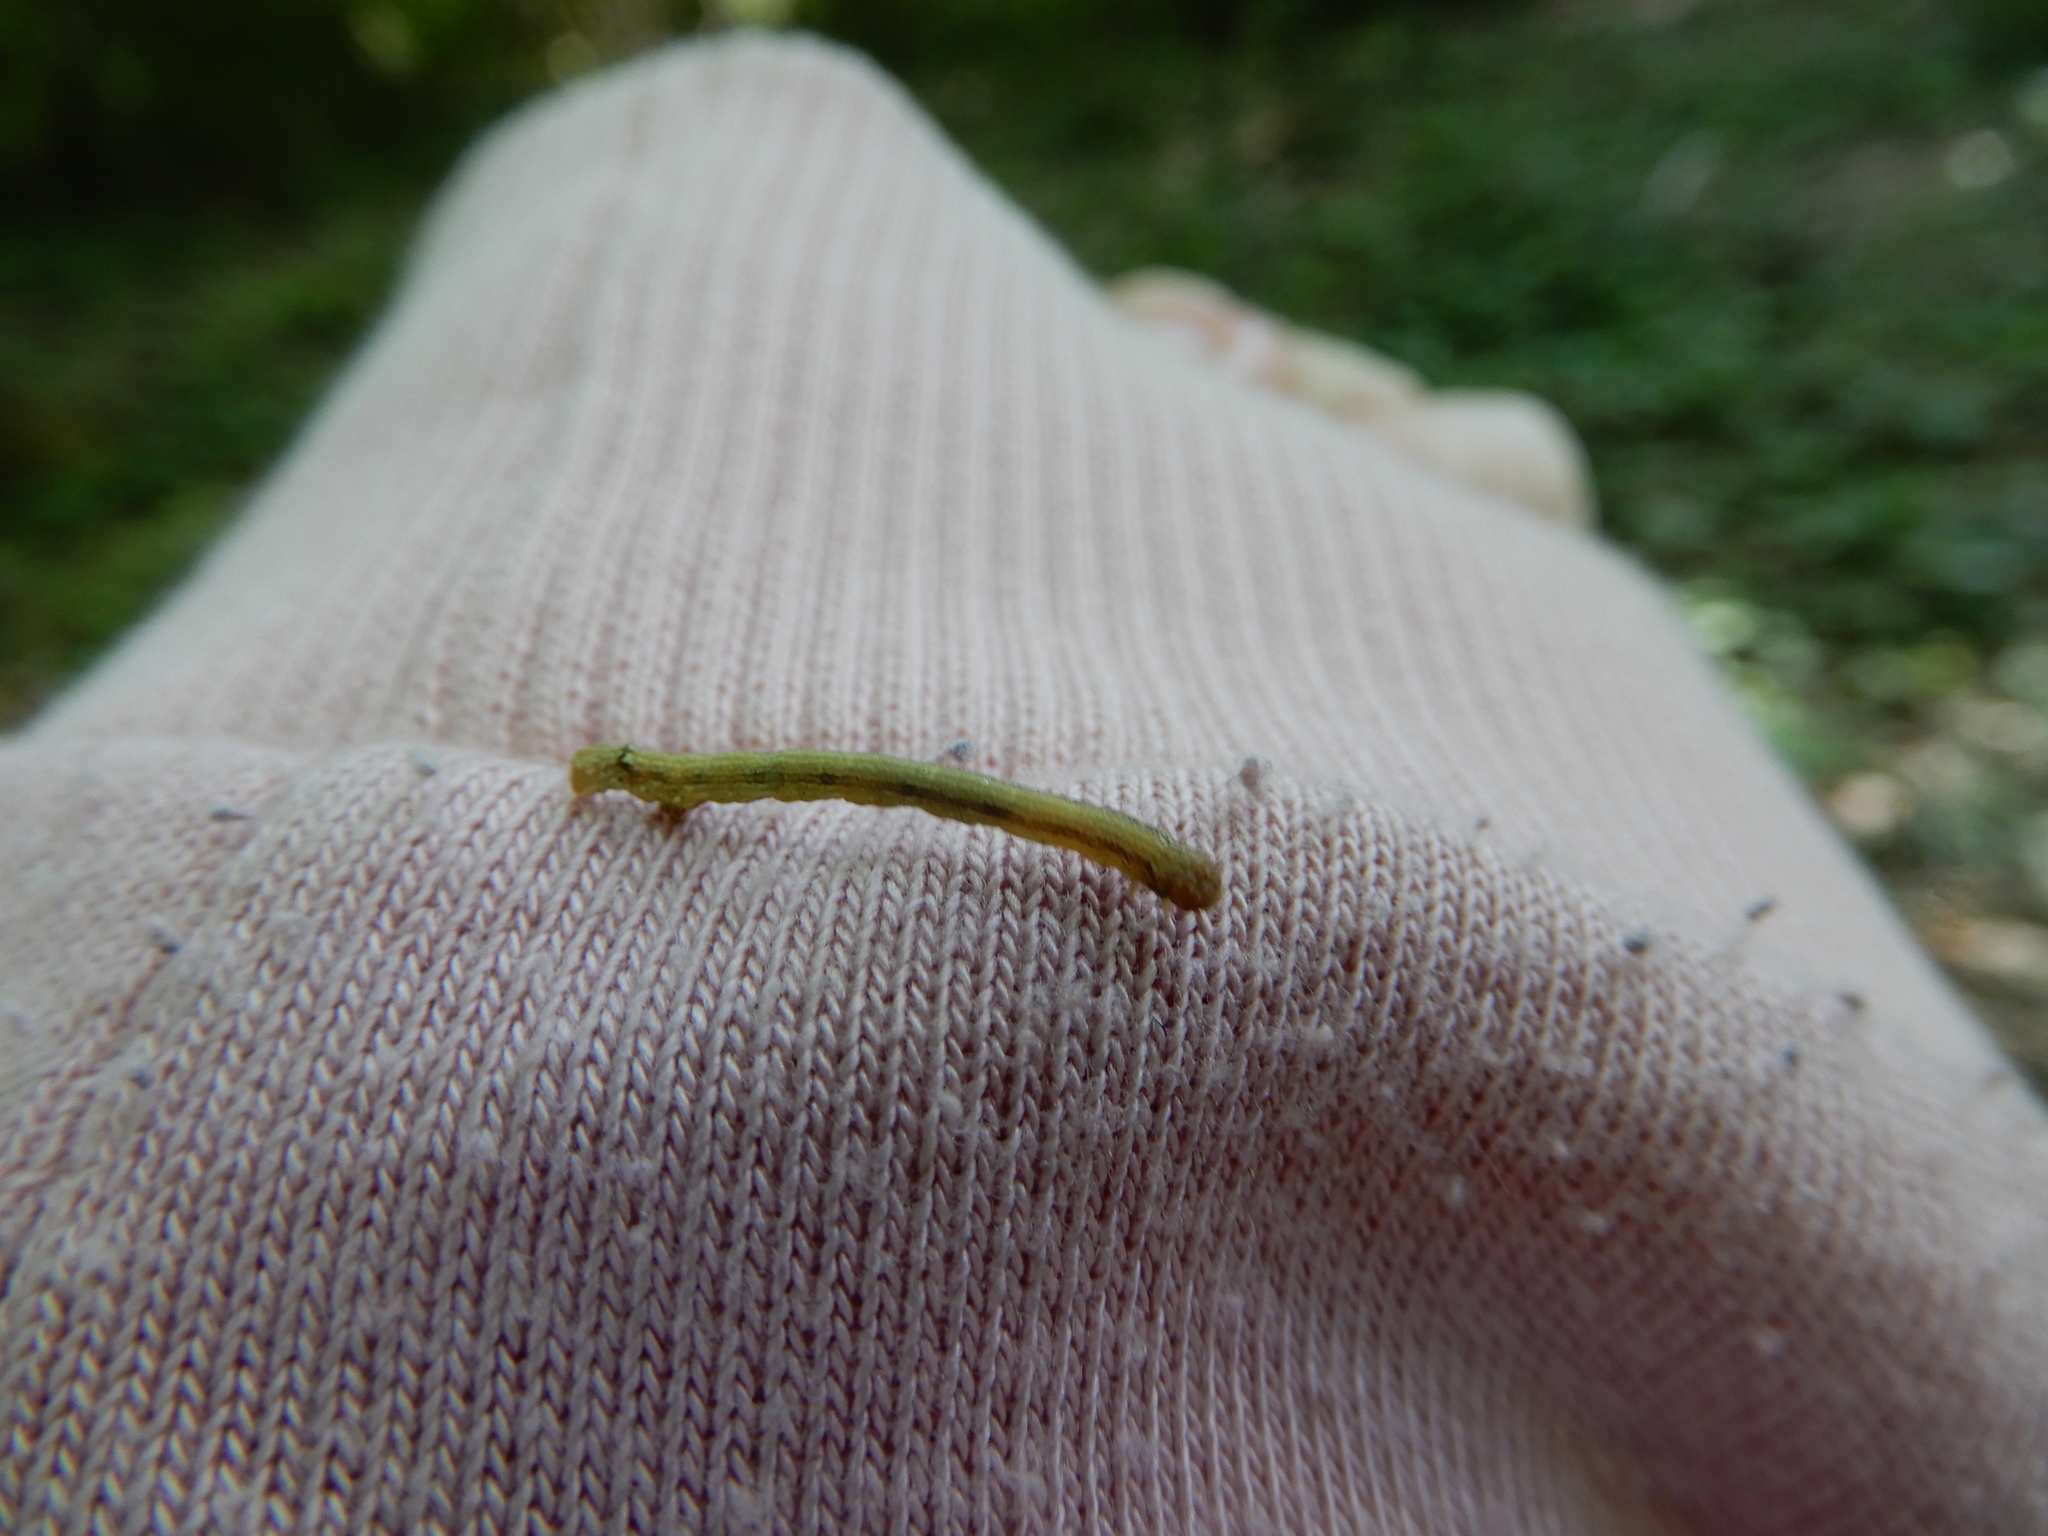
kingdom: Animalia
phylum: Arthropoda
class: Insecta
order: Lepidoptera
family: Geometridae
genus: Agriopis
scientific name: Agriopis
